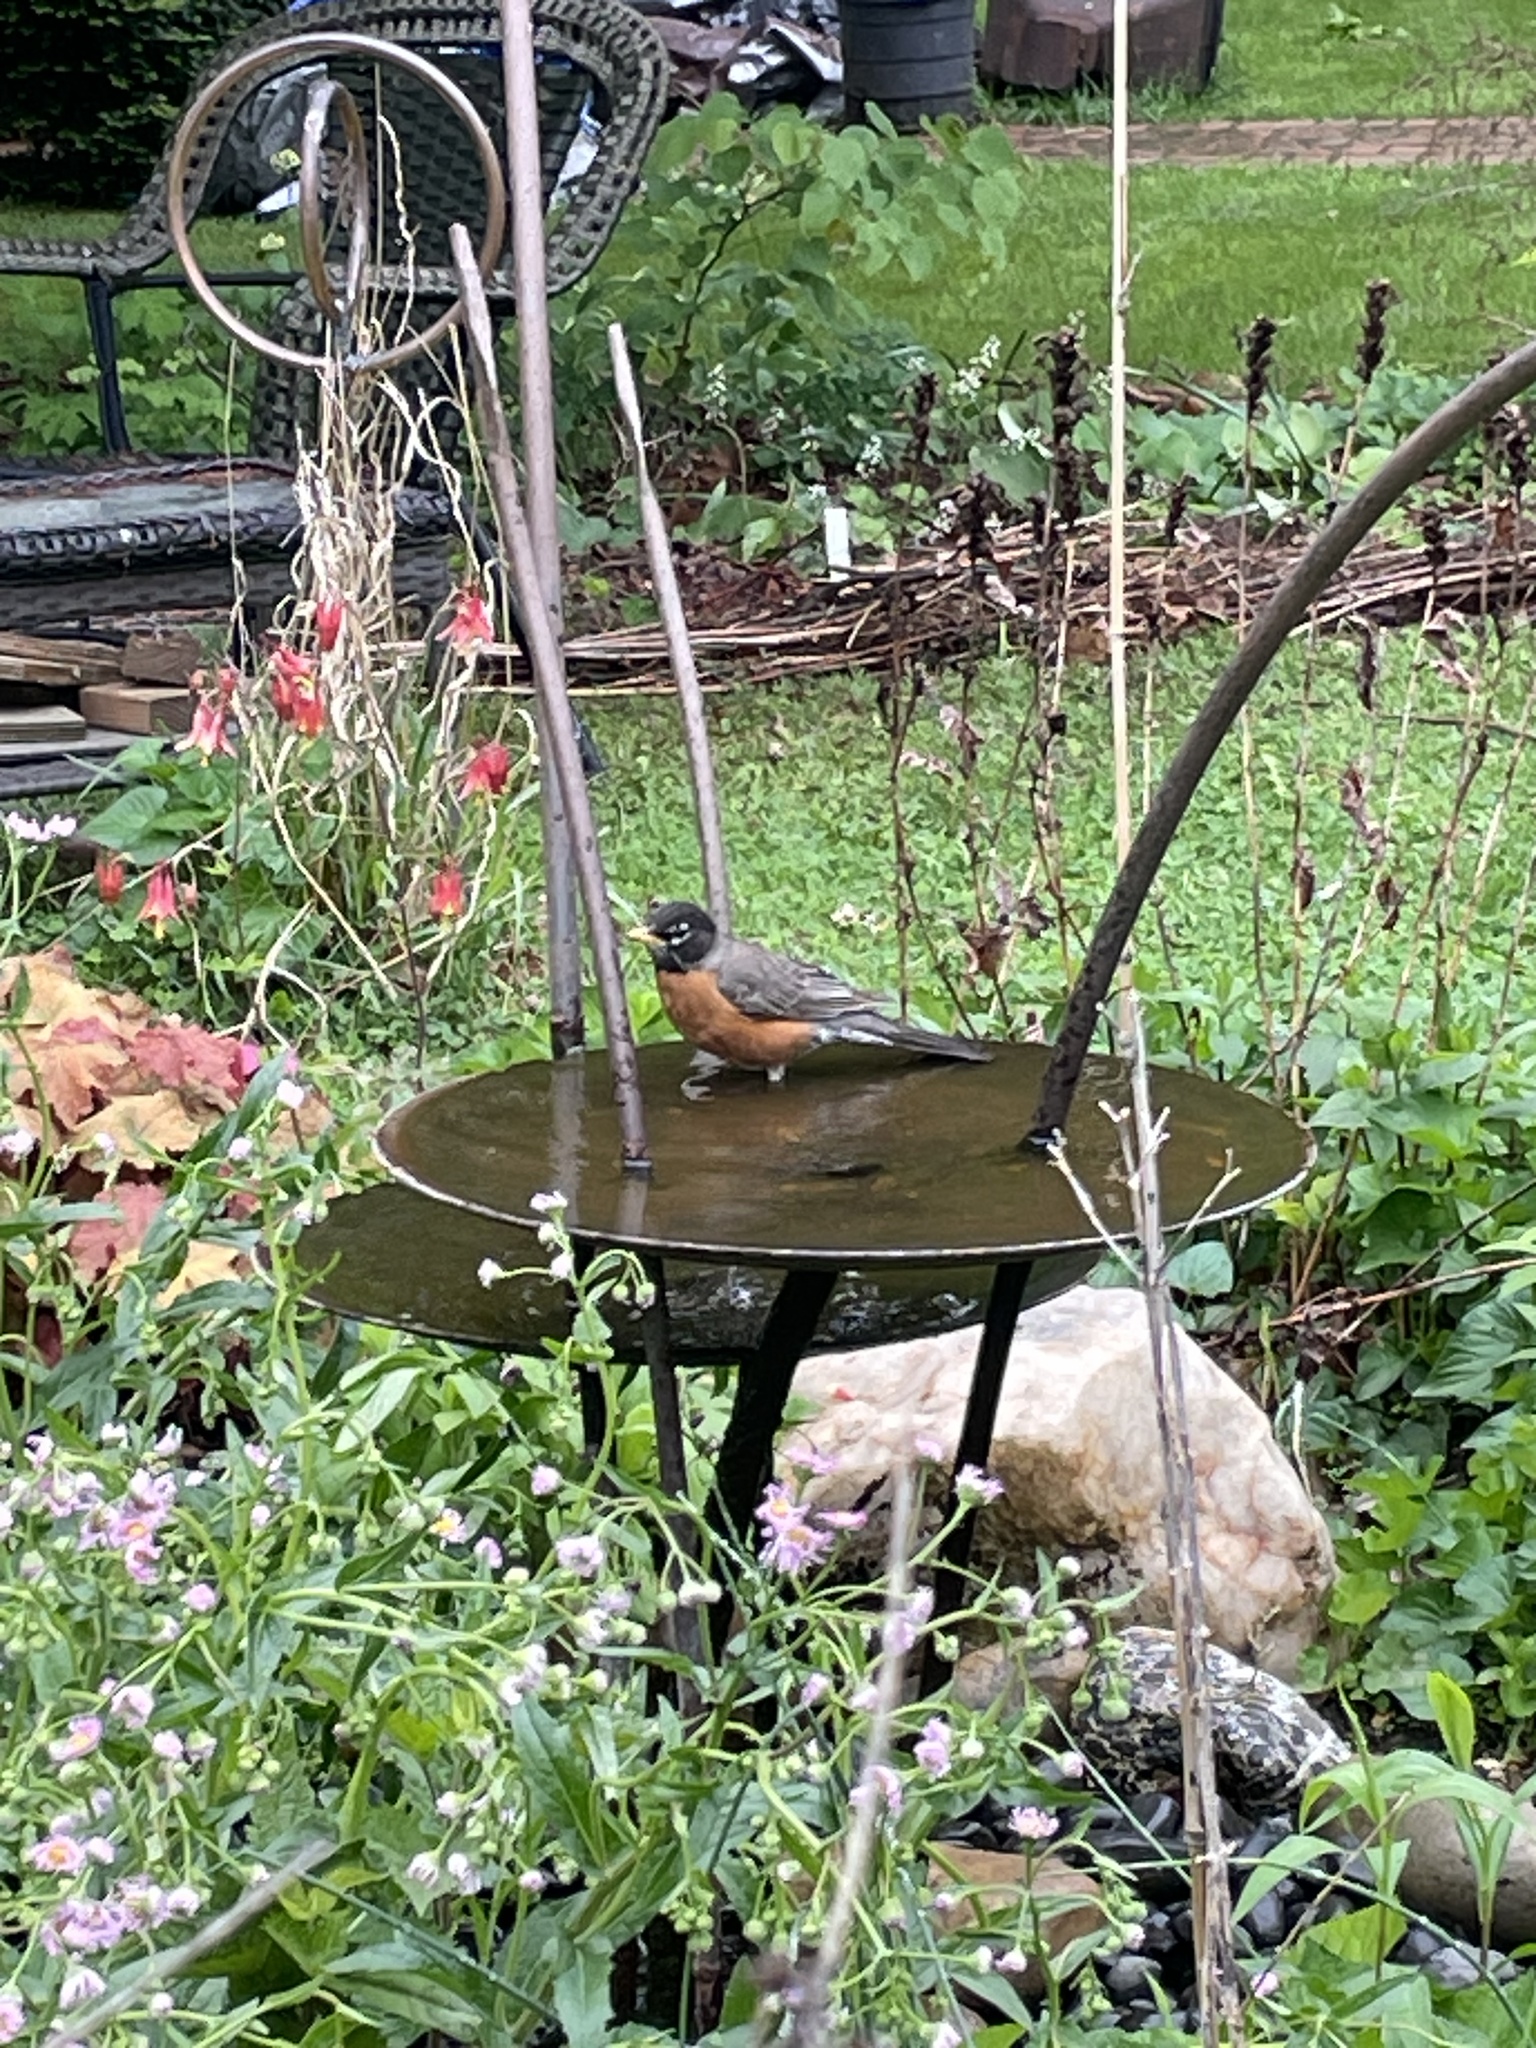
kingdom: Animalia
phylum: Chordata
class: Aves
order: Passeriformes
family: Turdidae
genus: Turdus
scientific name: Turdus migratorius
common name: American robin
